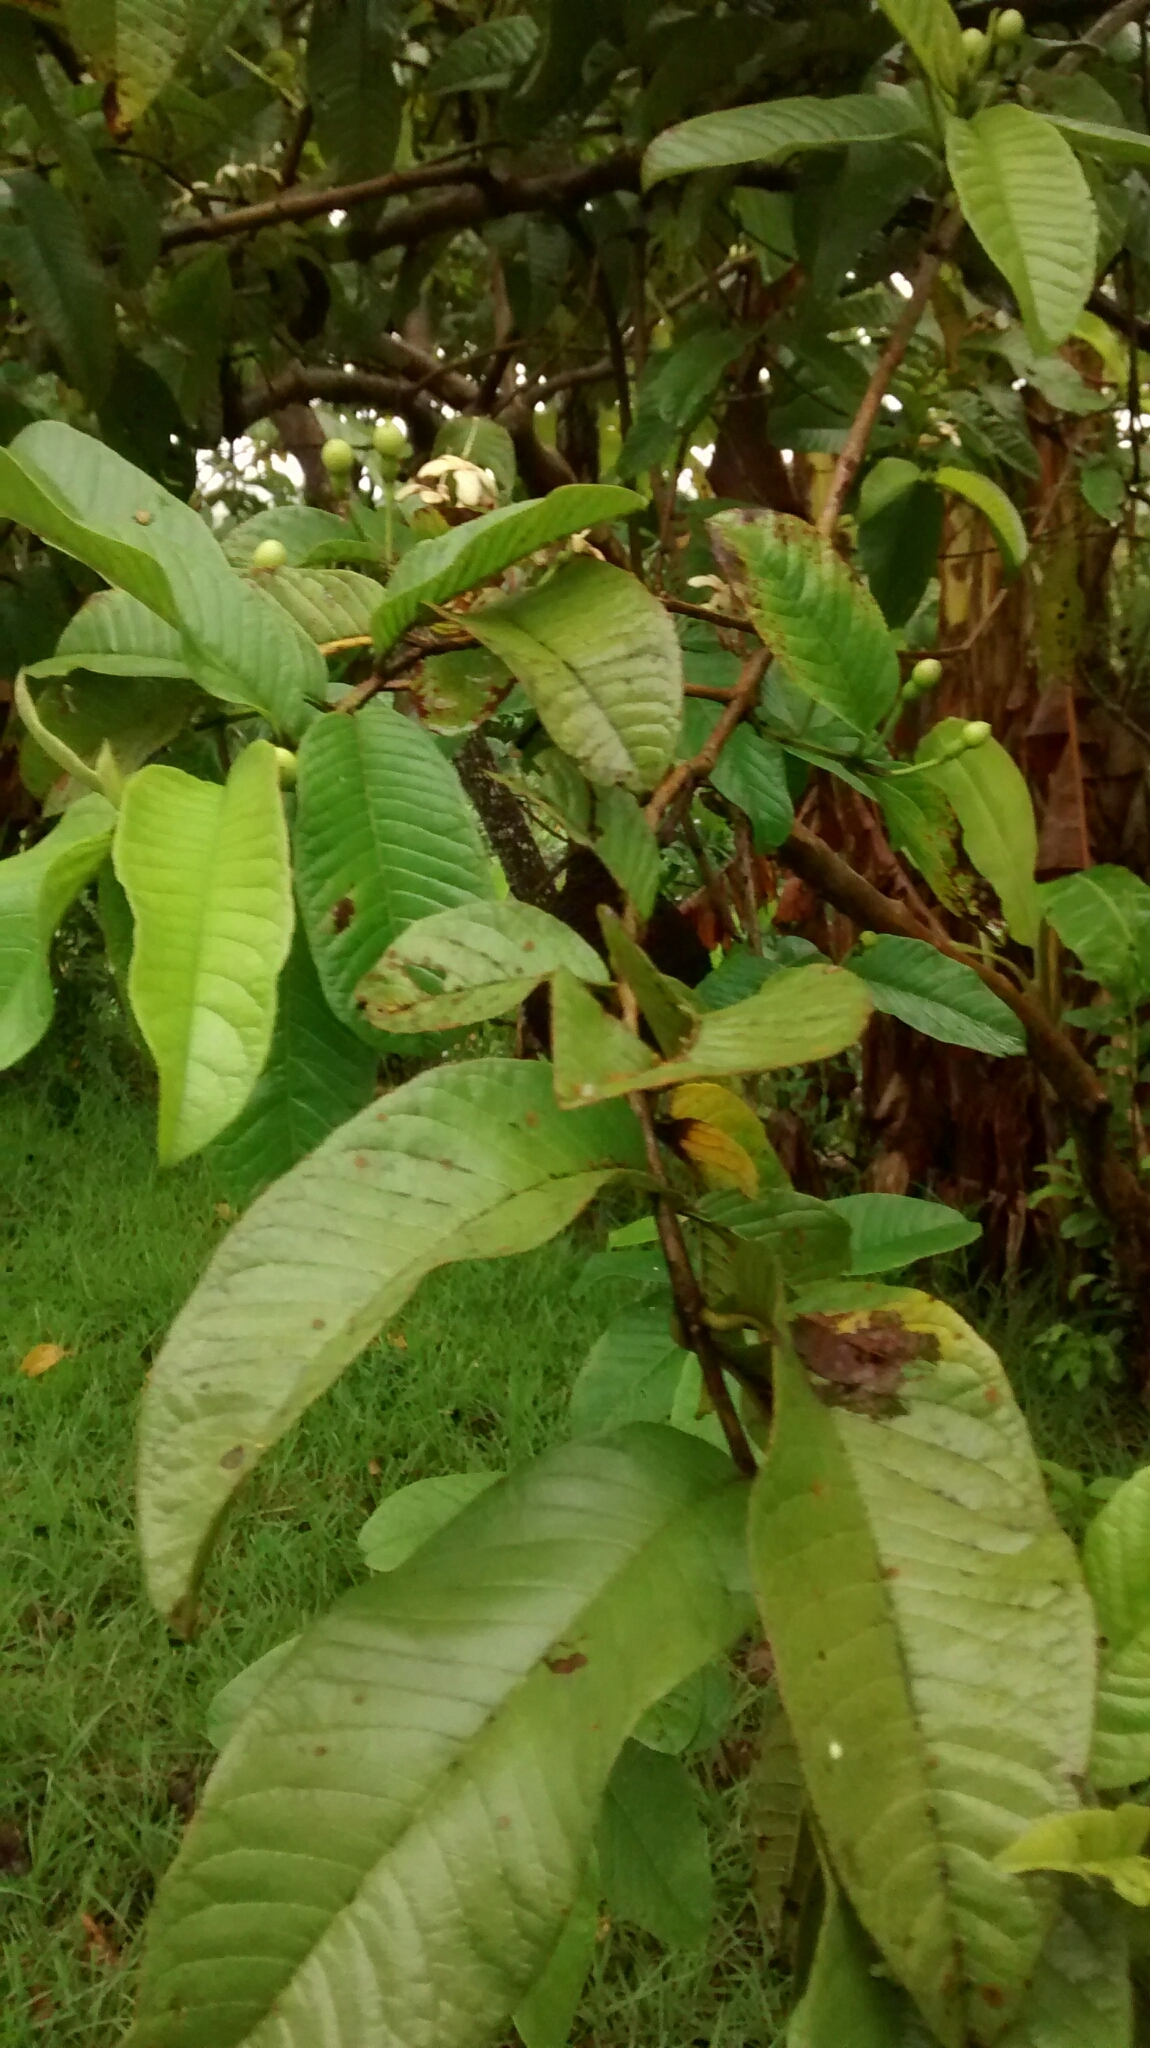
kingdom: Plantae
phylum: Tracheophyta
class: Magnoliopsida
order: Myrtales
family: Myrtaceae
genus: Psidium
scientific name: Psidium guajava
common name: Guava
